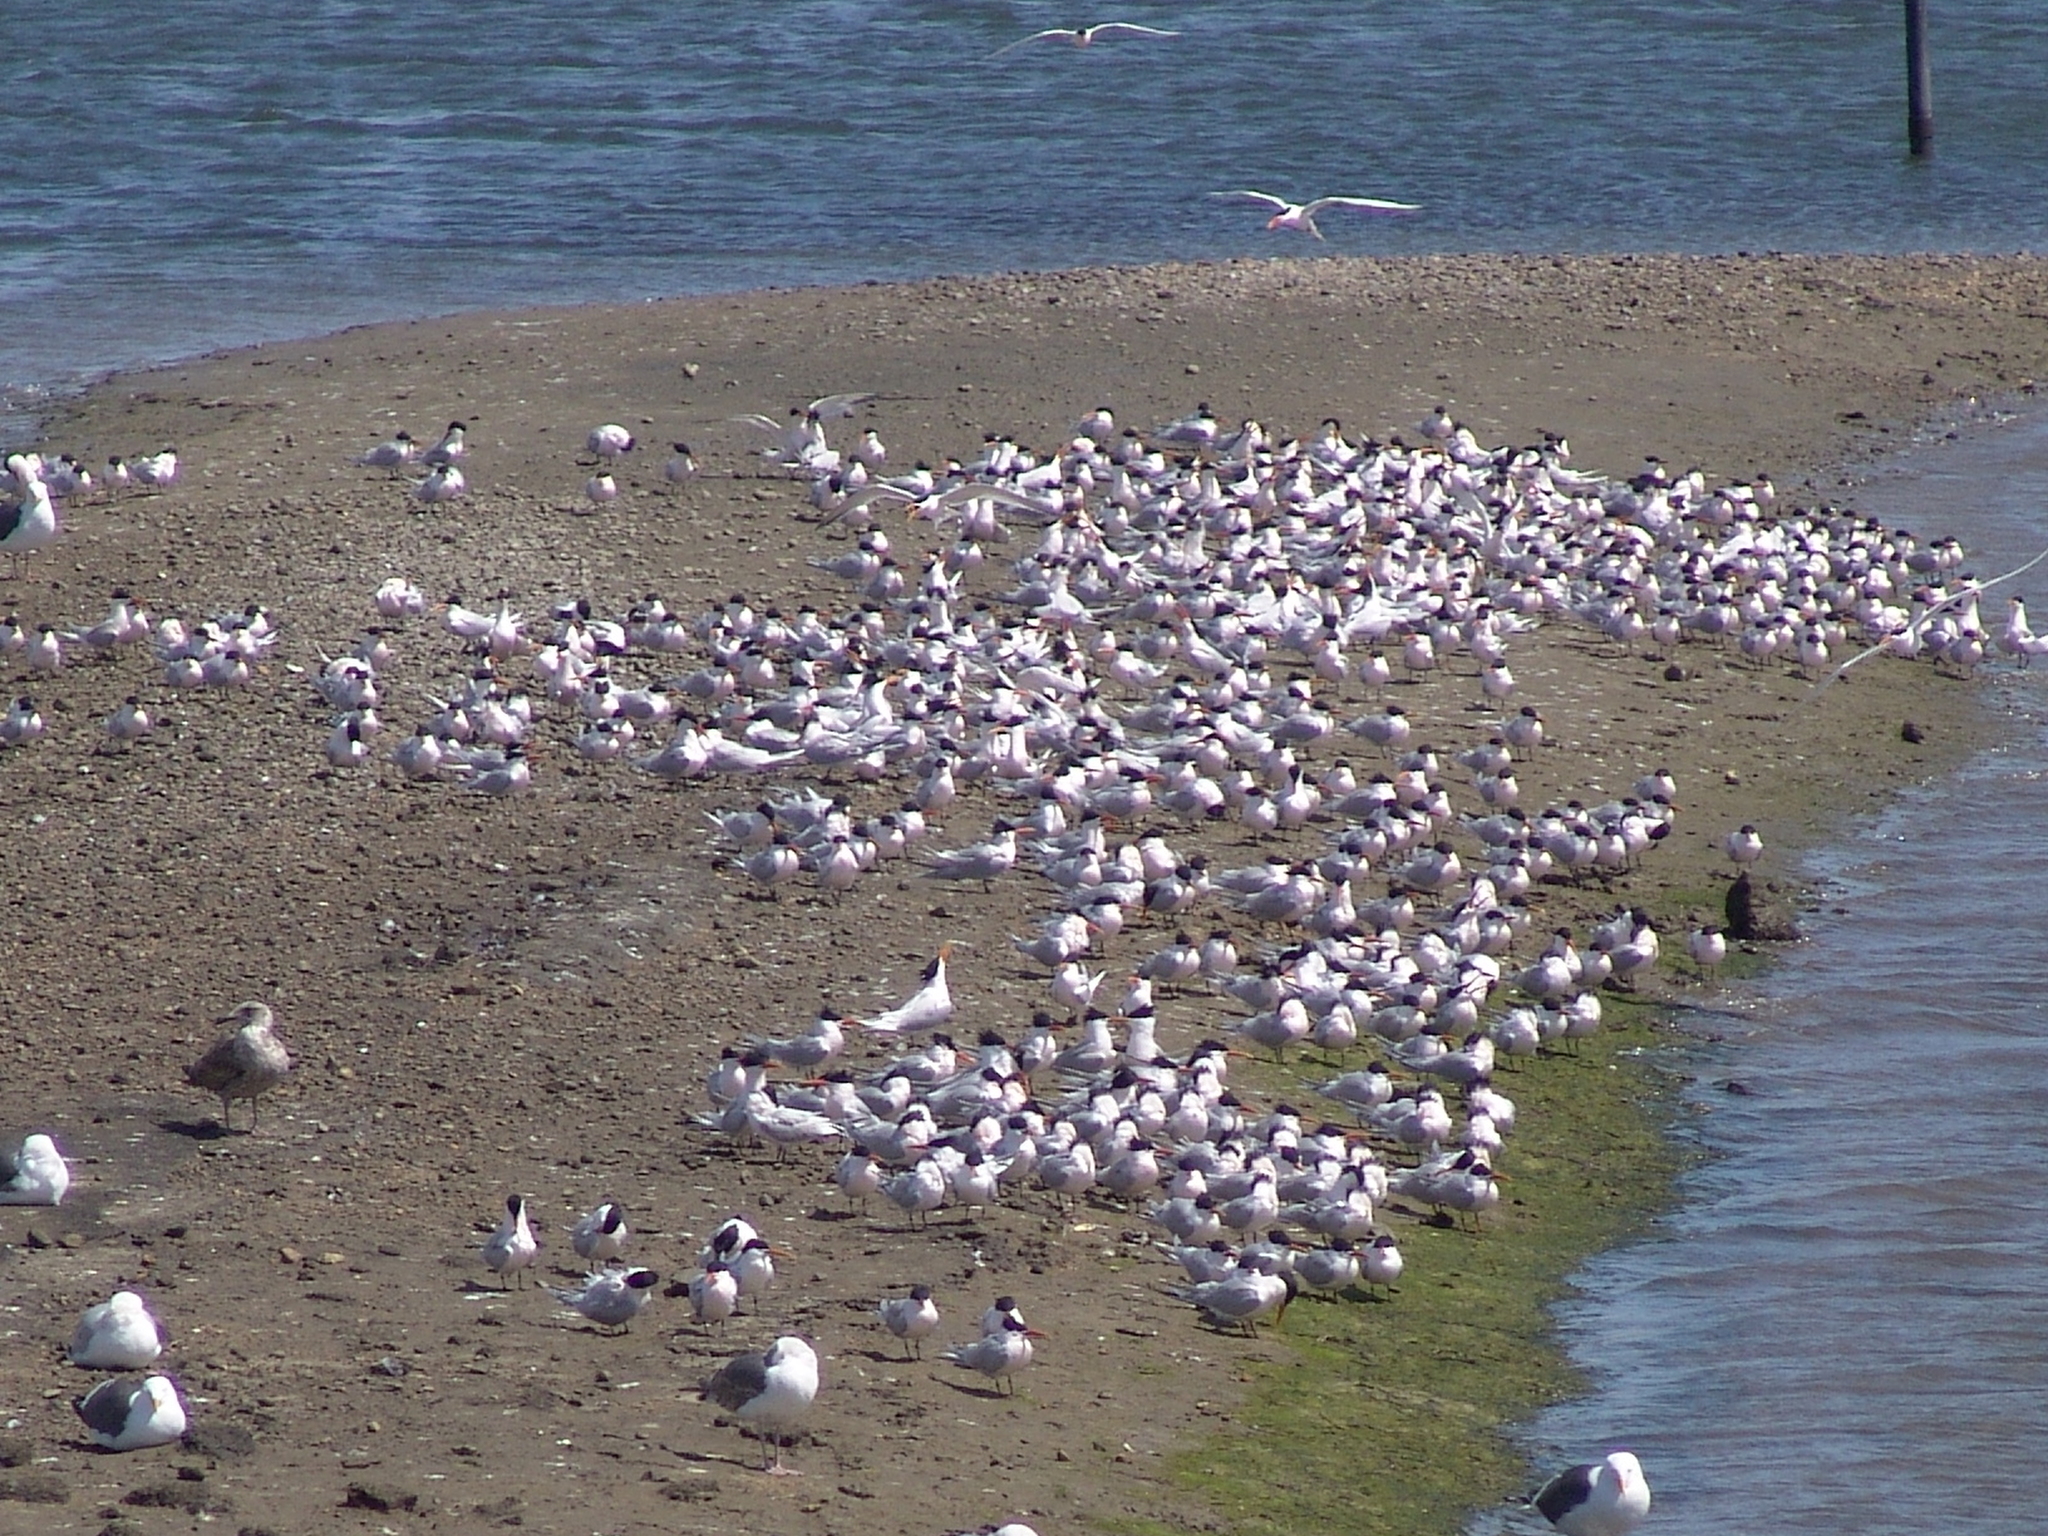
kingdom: Animalia
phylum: Chordata
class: Aves
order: Charadriiformes
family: Laridae
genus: Thalasseus
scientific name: Thalasseus elegans
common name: Elegant tern
